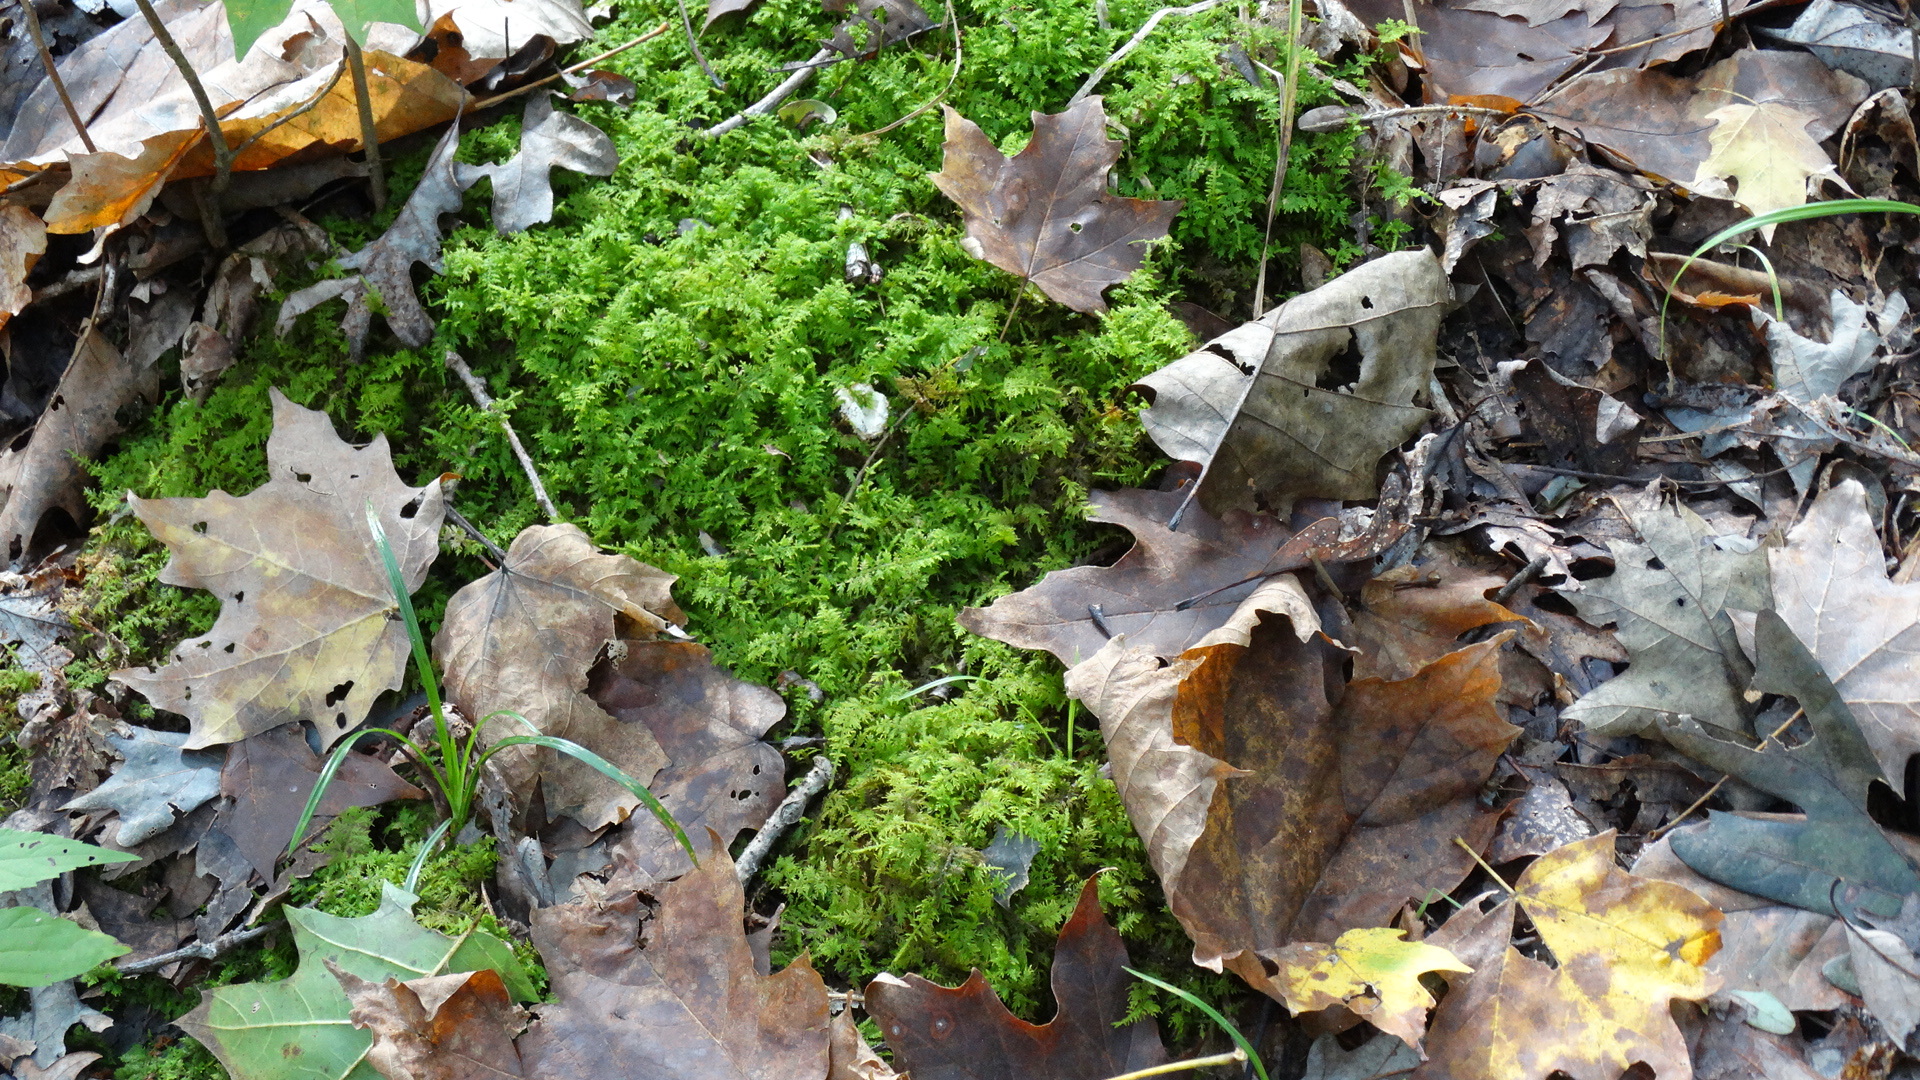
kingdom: Plantae
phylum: Bryophyta
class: Bryopsida
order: Hypnales
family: Thuidiaceae
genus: Thuidium
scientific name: Thuidium delicatulum
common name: Delicate fern moss
